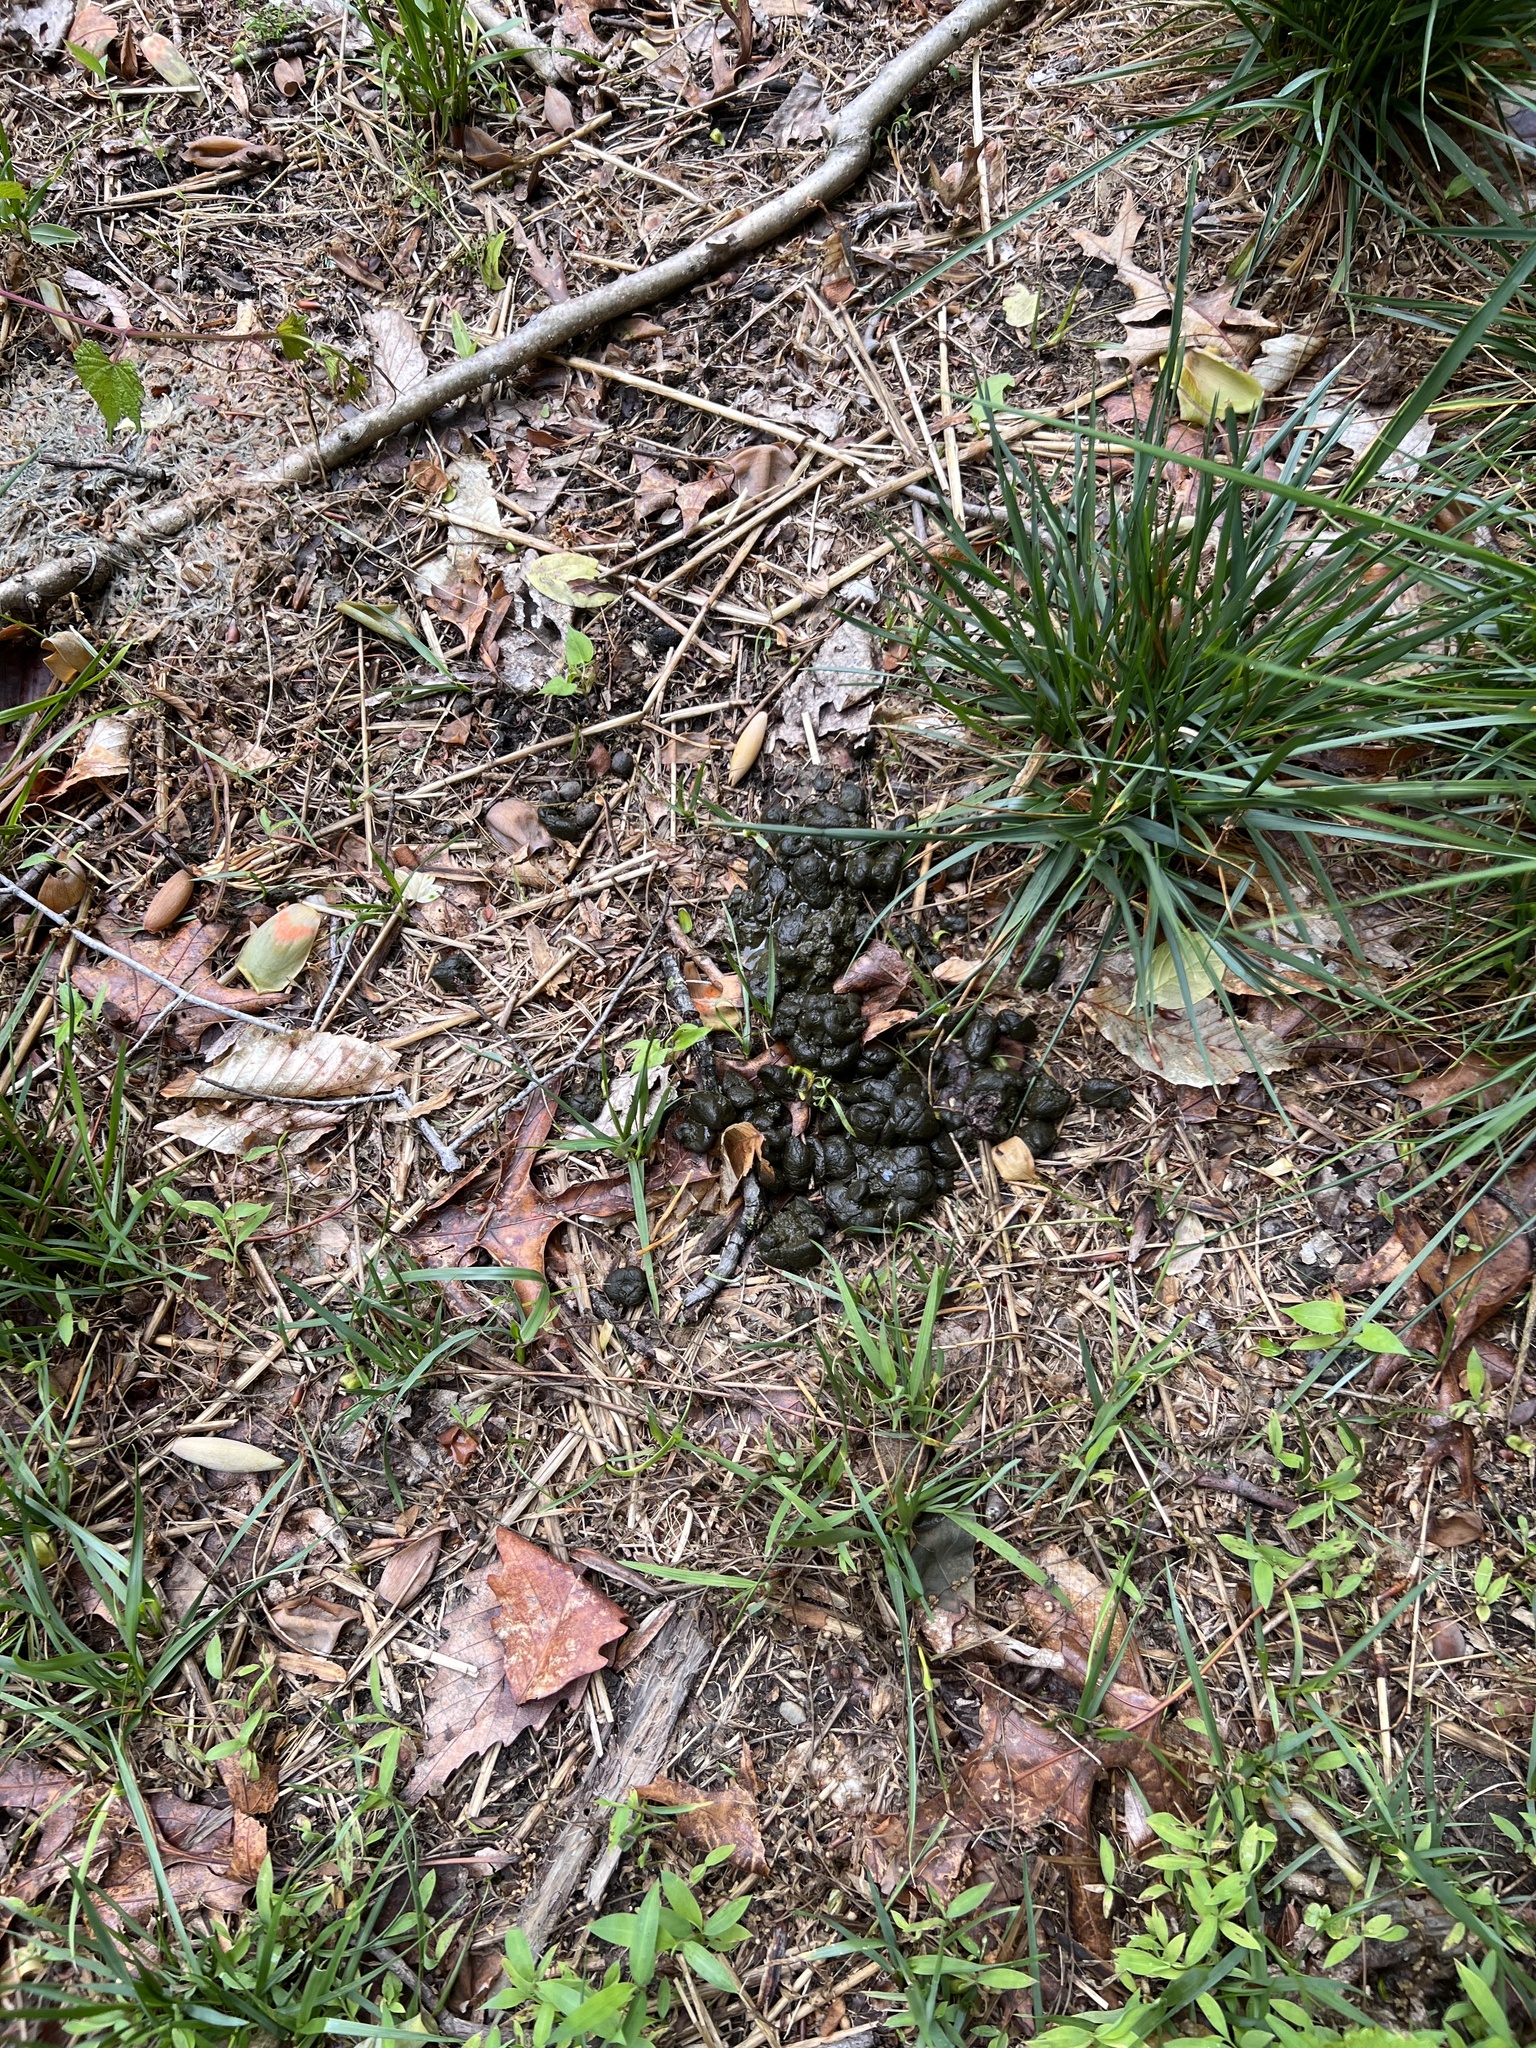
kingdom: Animalia
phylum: Chordata
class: Mammalia
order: Artiodactyla
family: Cervidae
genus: Odocoileus
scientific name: Odocoileus virginianus
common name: White-tailed deer
